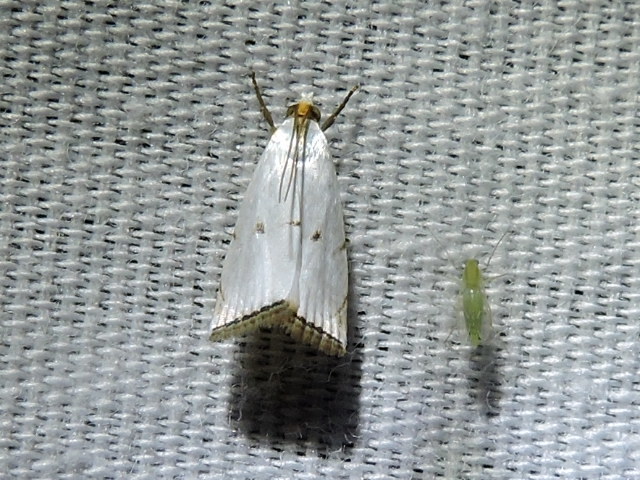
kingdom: Animalia
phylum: Arthropoda
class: Insecta
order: Lepidoptera
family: Crambidae
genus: Argyria
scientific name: Argyria pusillalis
